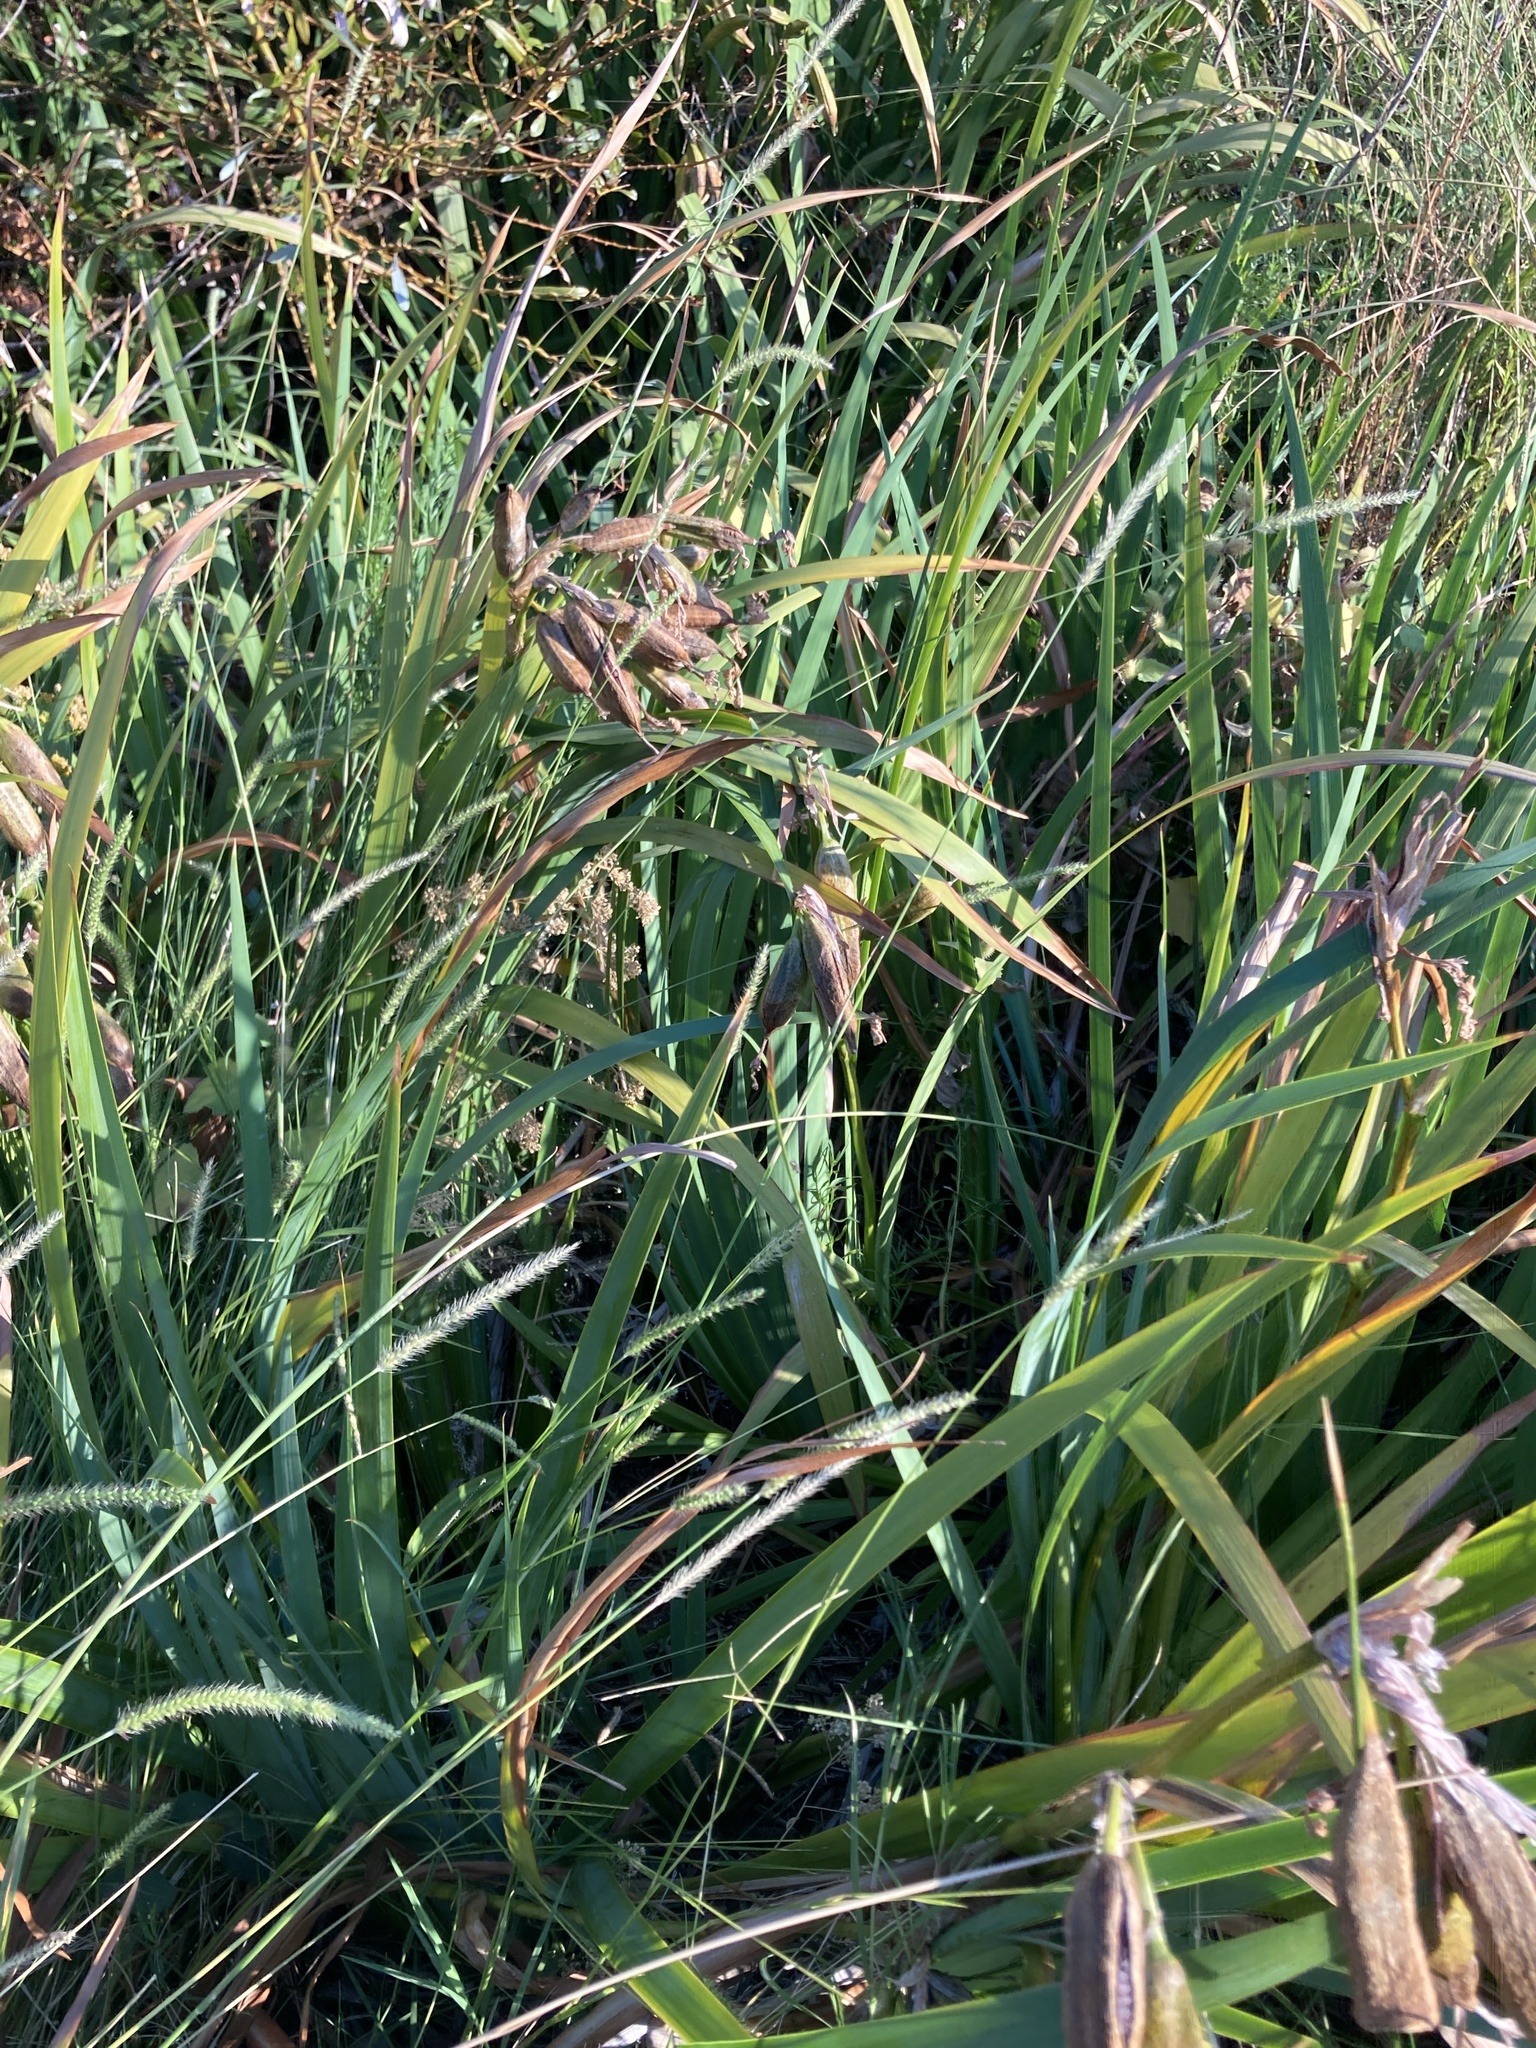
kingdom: Plantae
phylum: Tracheophyta
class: Liliopsida
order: Asparagales
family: Iridaceae
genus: Iris
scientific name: Iris pseudacorus
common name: Yellow flag
